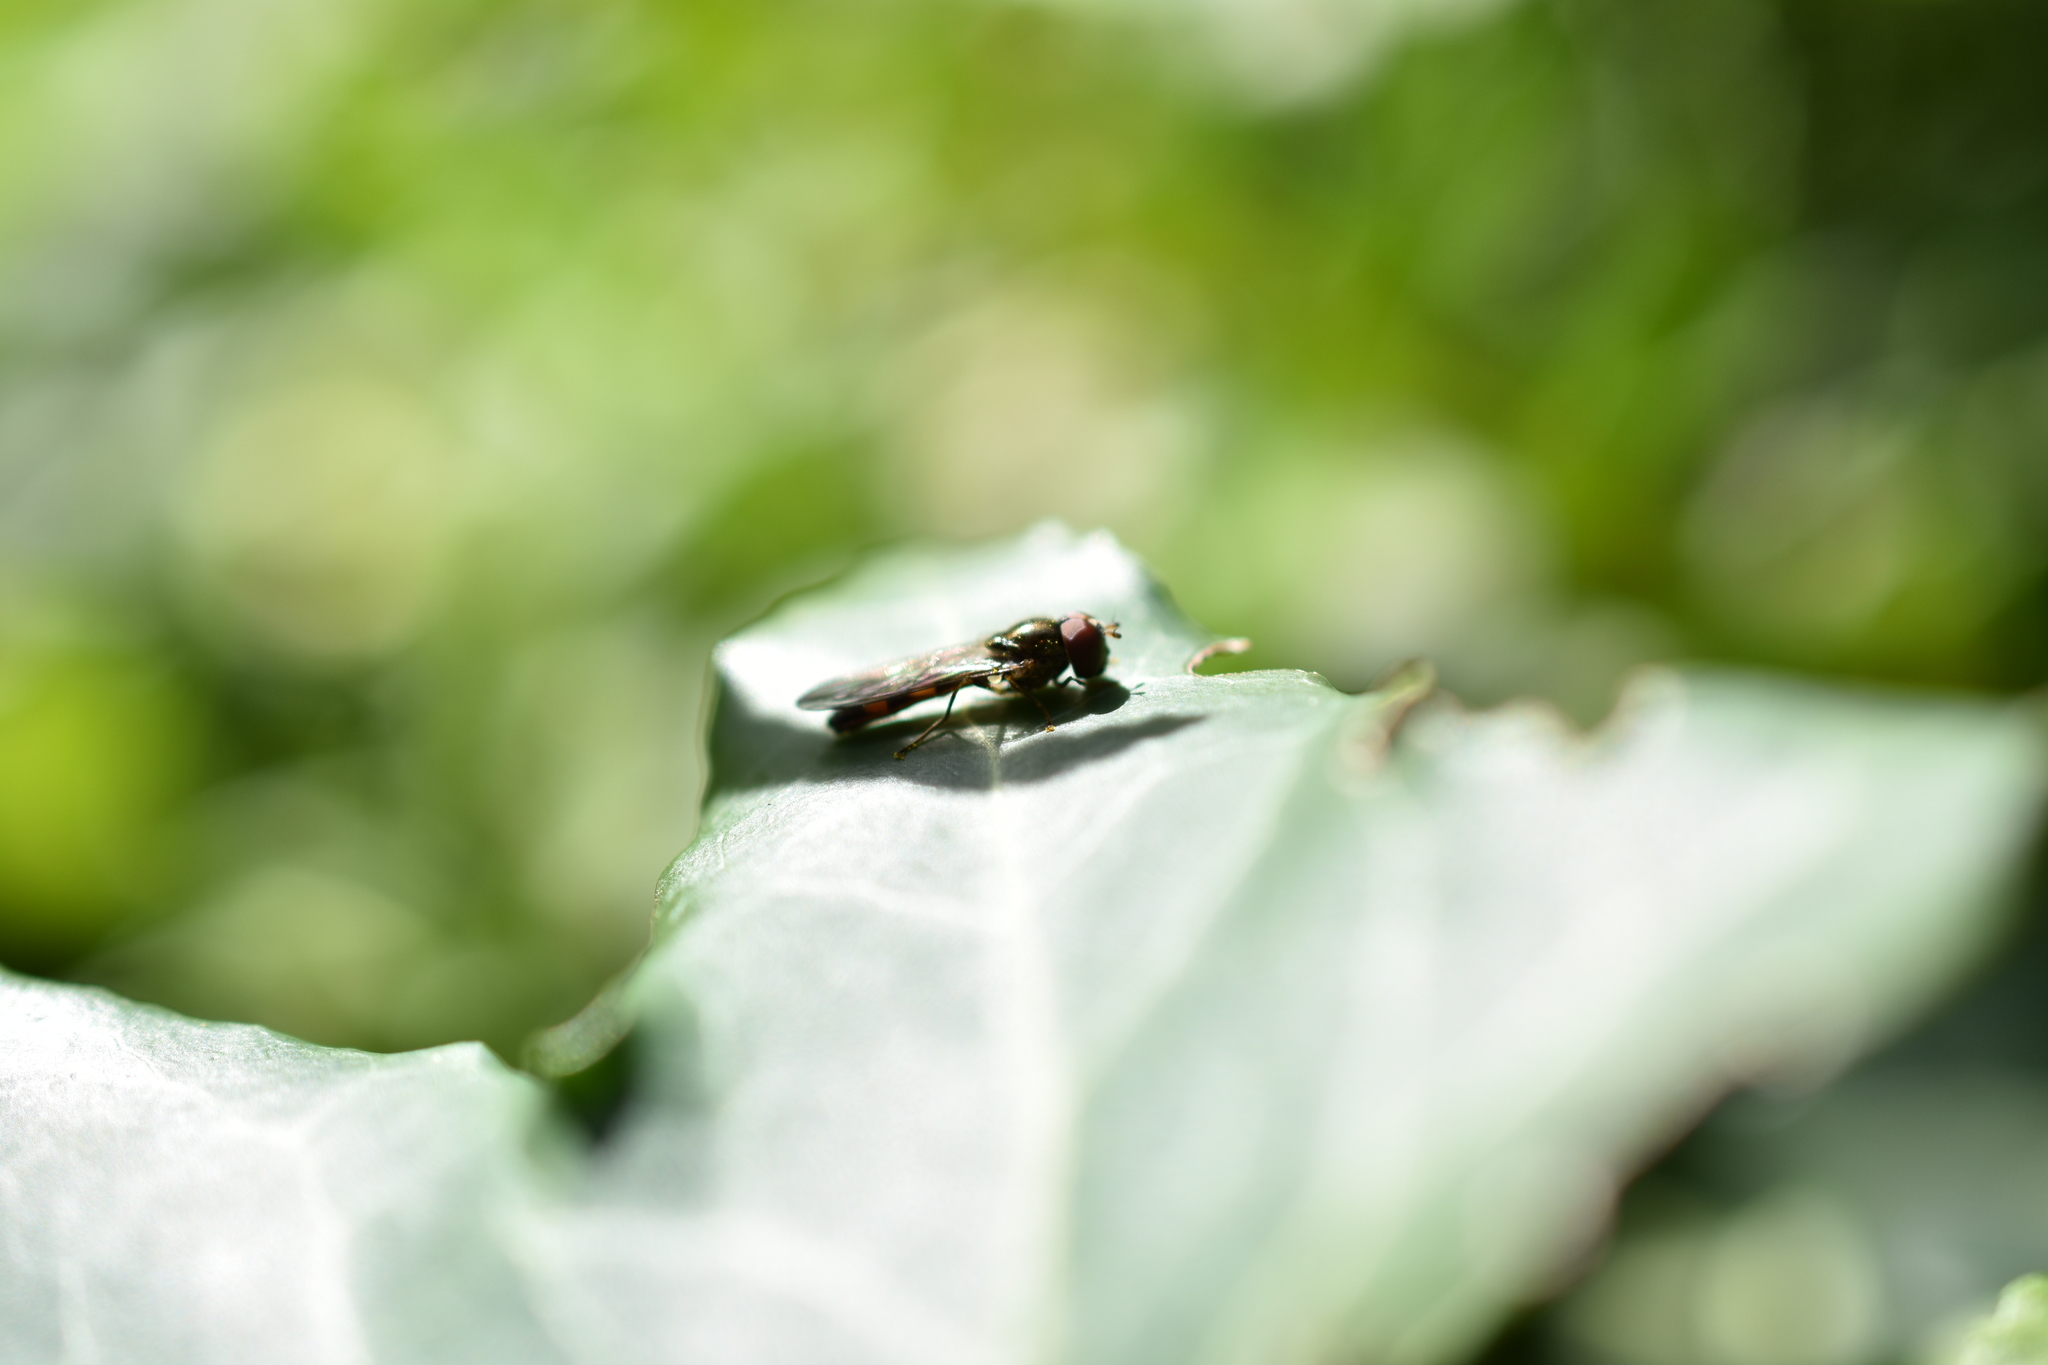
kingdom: Animalia
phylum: Arthropoda
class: Insecta
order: Diptera
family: Syrphidae
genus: Melanostoma
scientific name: Melanostoma mellina
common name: Hover fly
